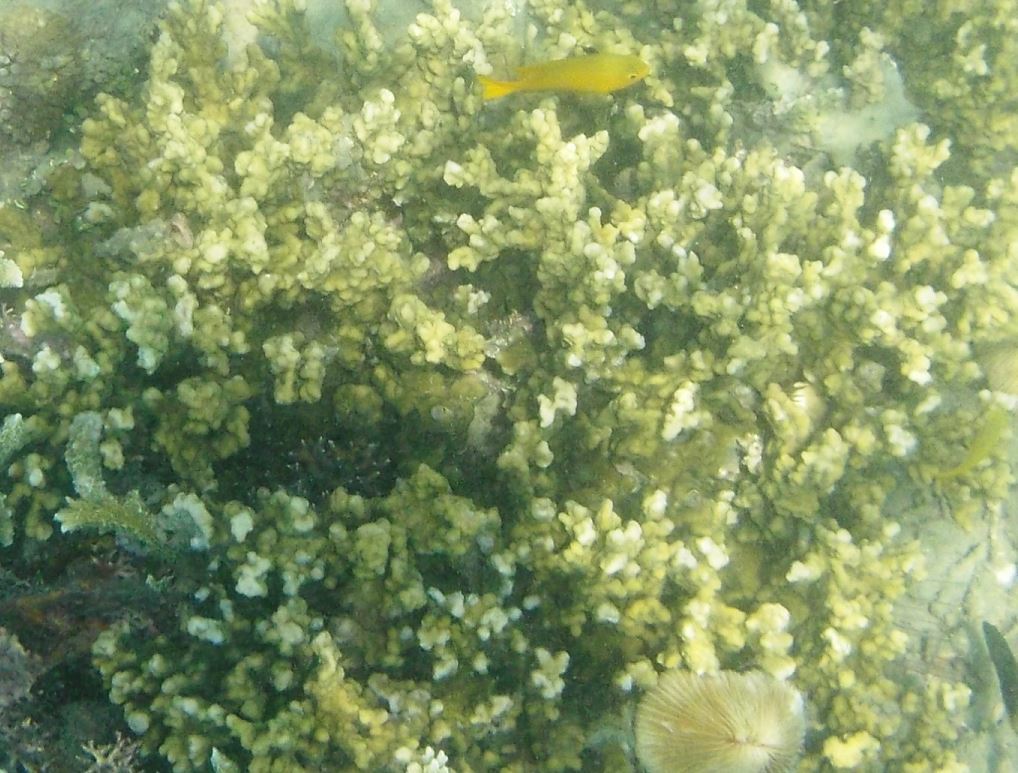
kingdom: Animalia
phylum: Chordata
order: Perciformes
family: Pomacentridae
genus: Pomacentrus
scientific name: Pomacentrus moluccensis
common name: Lemon damsel
